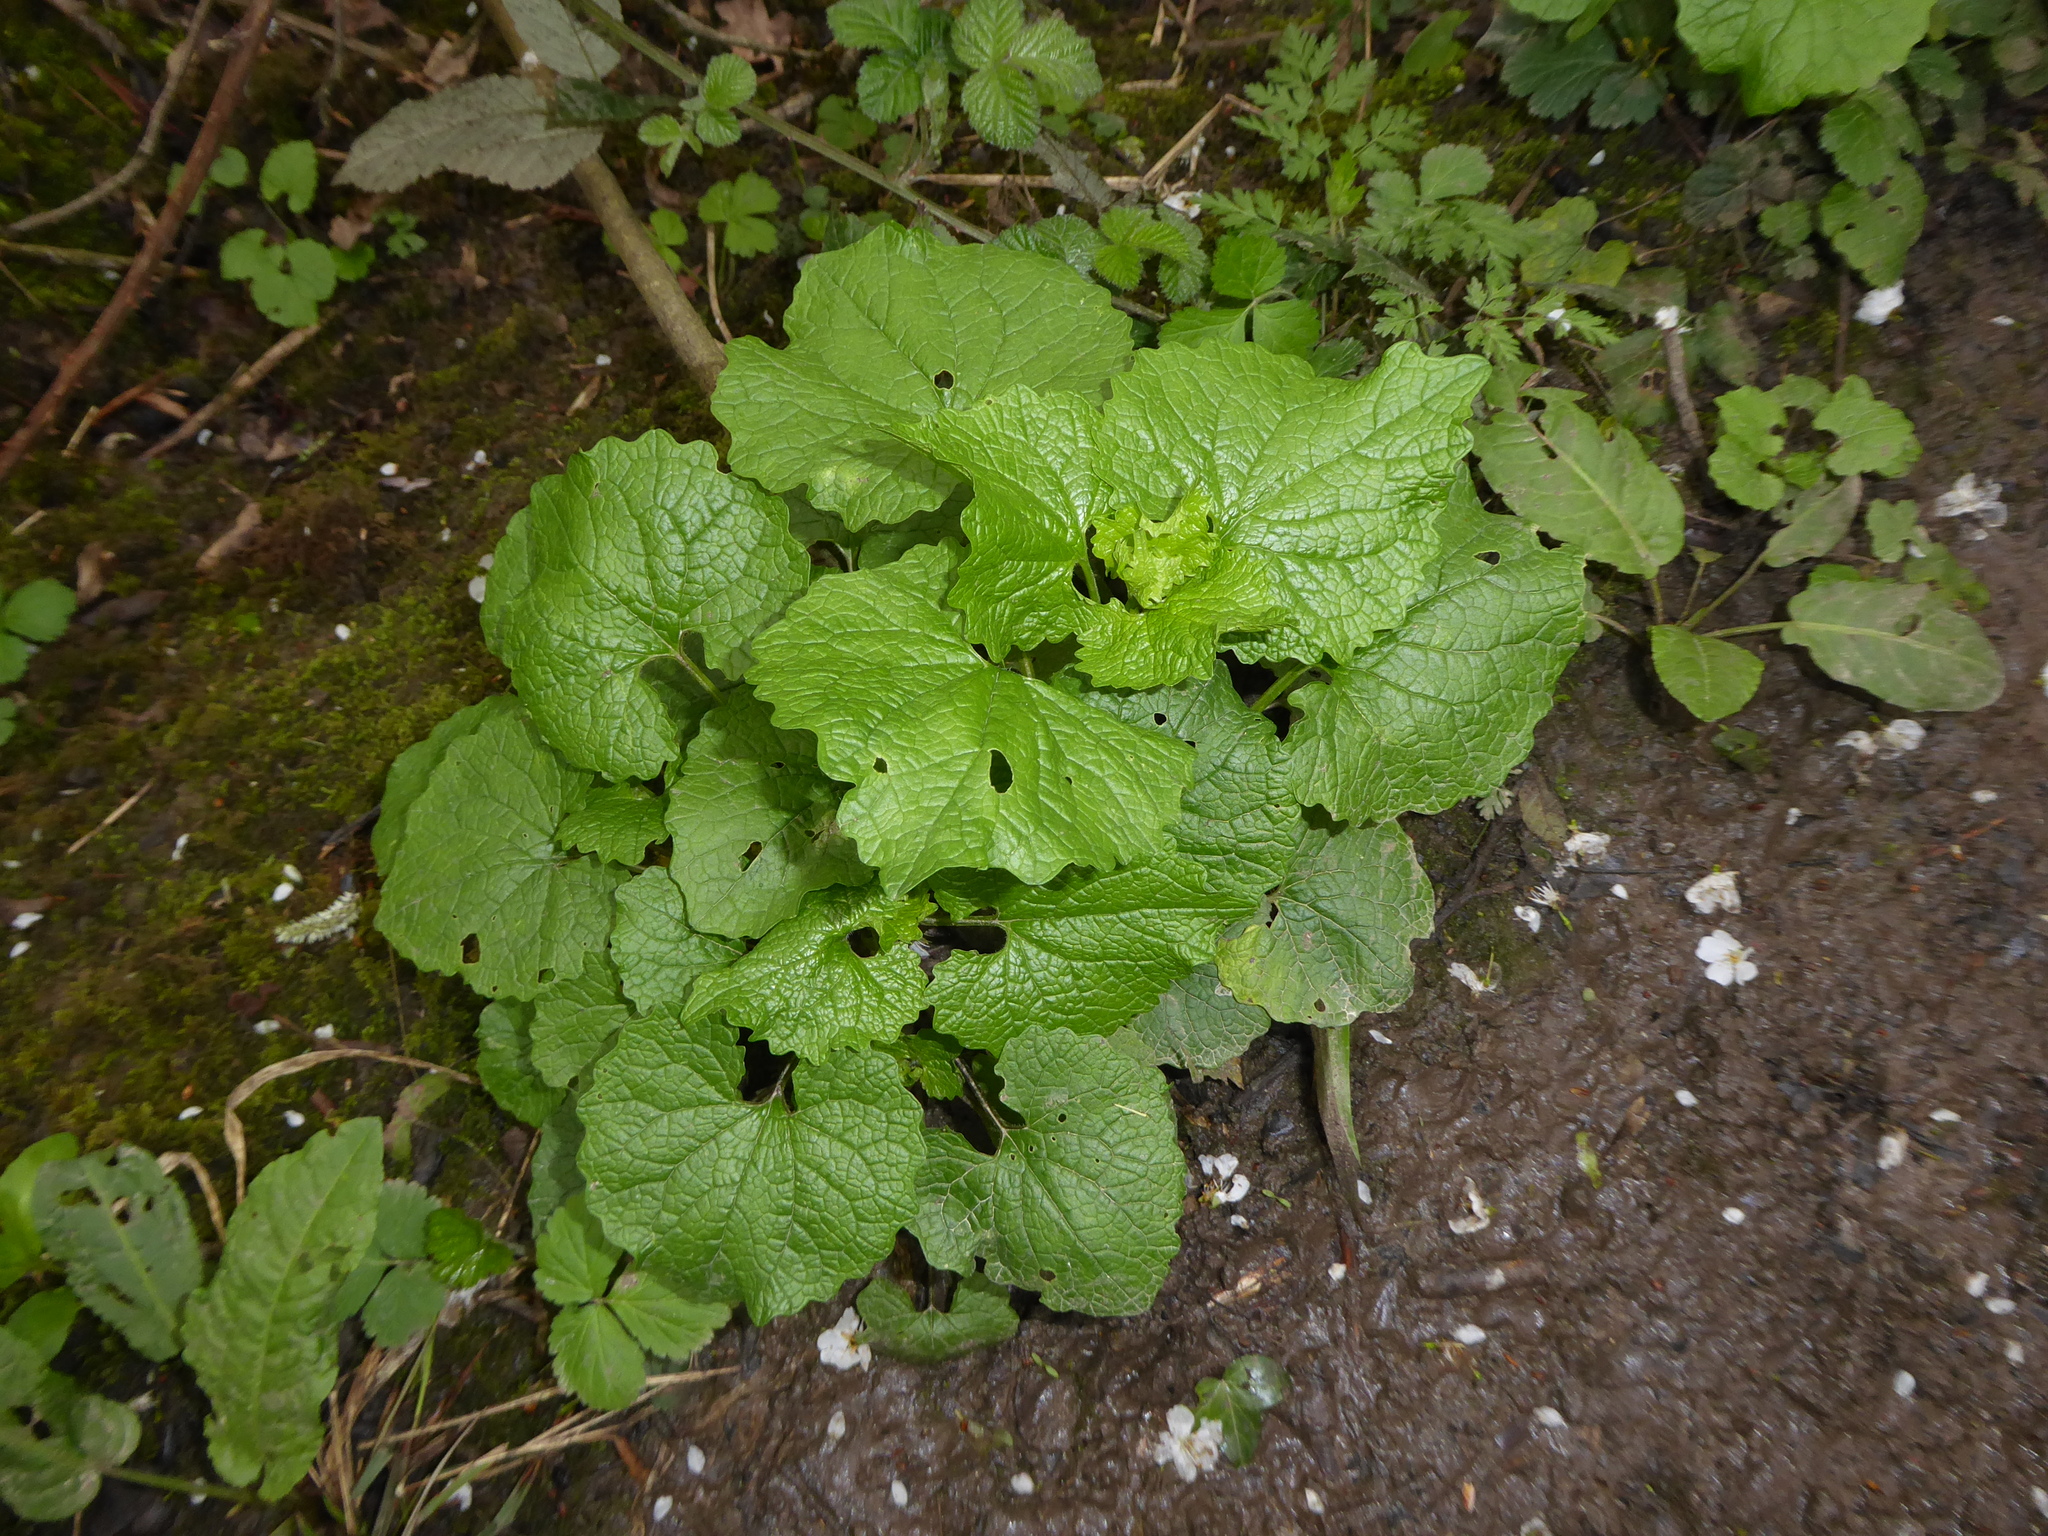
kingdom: Plantae
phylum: Tracheophyta
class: Magnoliopsida
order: Brassicales
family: Brassicaceae
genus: Alliaria
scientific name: Alliaria petiolata
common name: Garlic mustard
